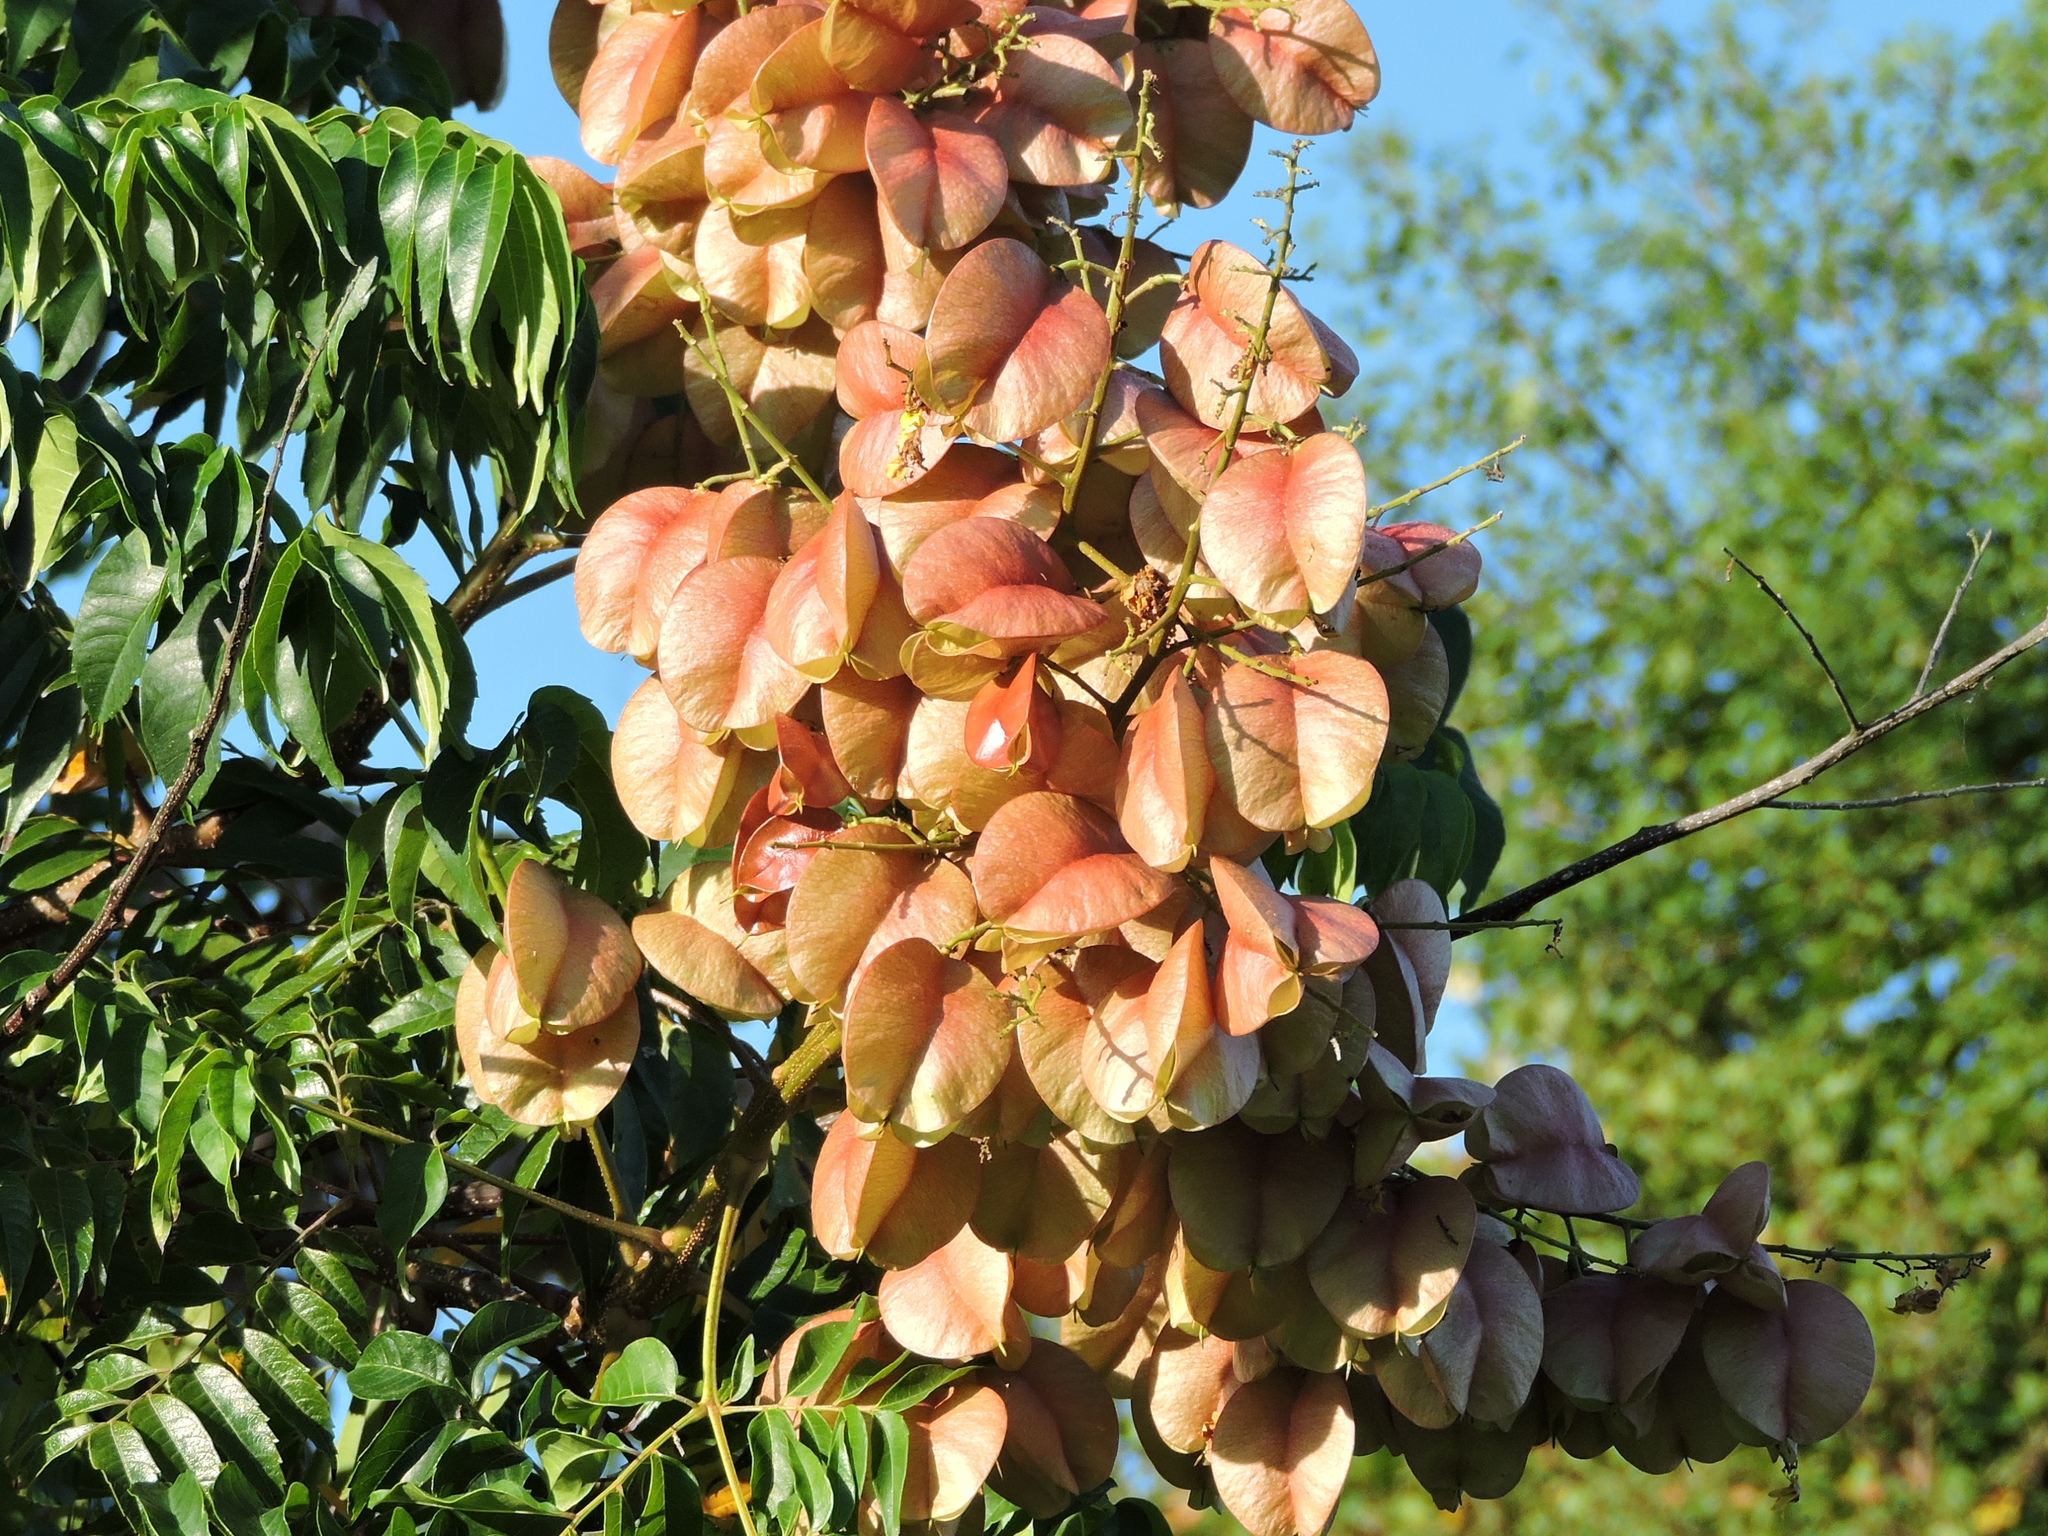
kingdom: Plantae
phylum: Tracheophyta
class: Magnoliopsida
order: Sapindales
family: Sapindaceae
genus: Koelreuteria
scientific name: Koelreuteria elegans
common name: Chinese flame tree
